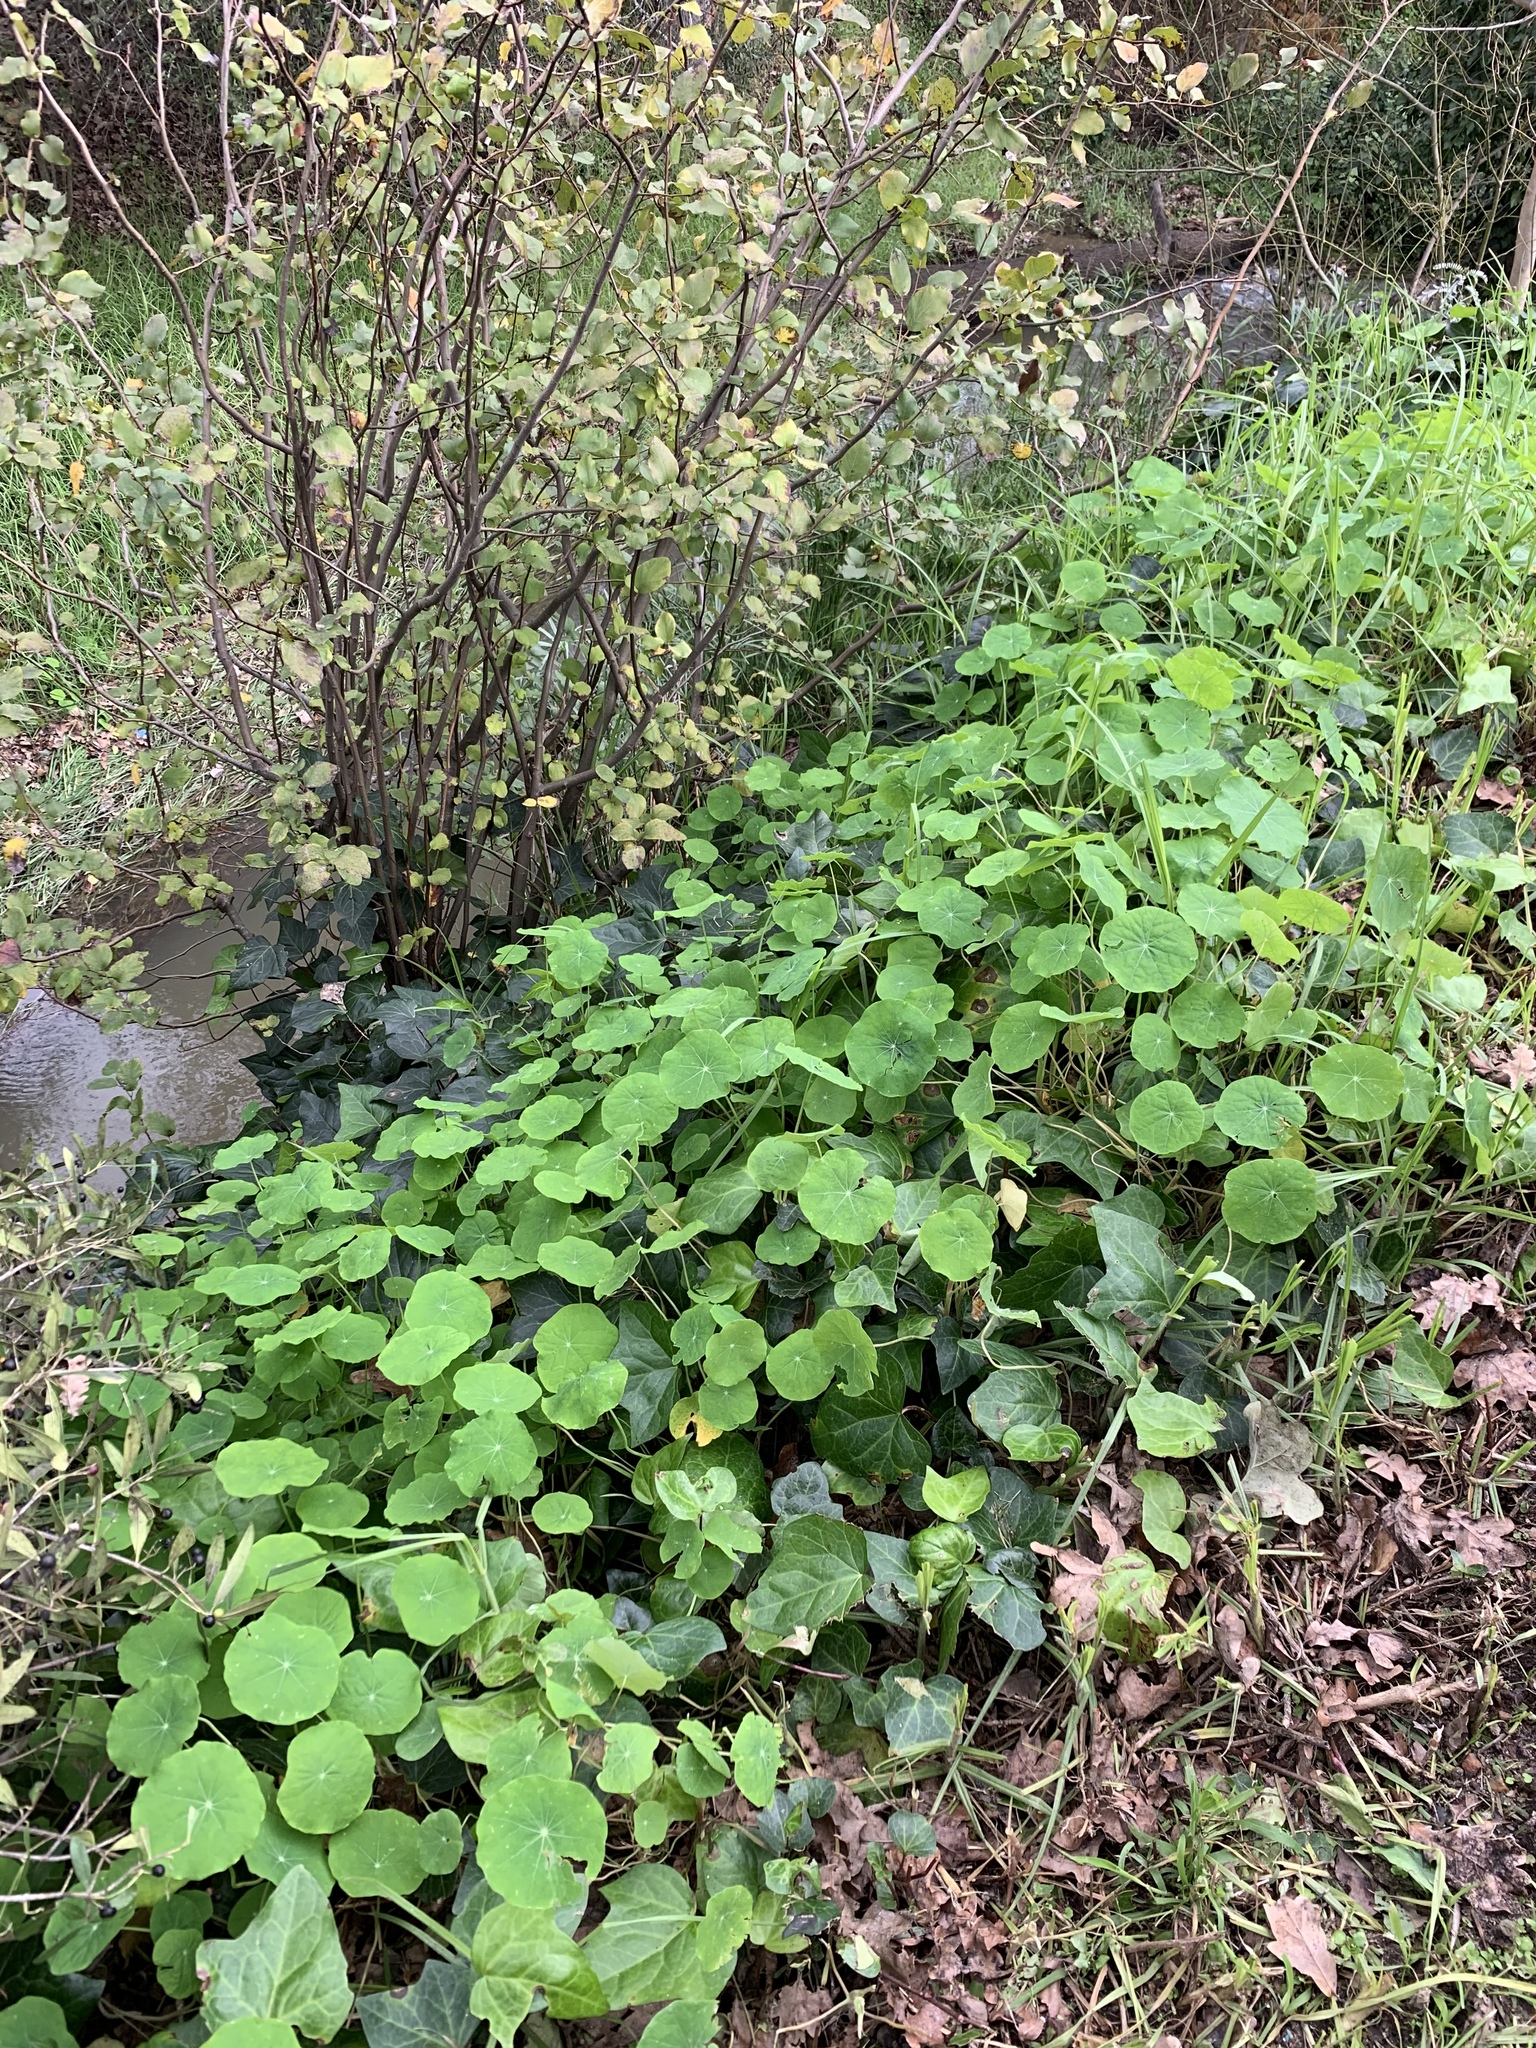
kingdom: Plantae
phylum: Tracheophyta
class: Magnoliopsida
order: Brassicales
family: Tropaeolaceae
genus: Tropaeolum
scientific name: Tropaeolum majus
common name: Nasturtium
